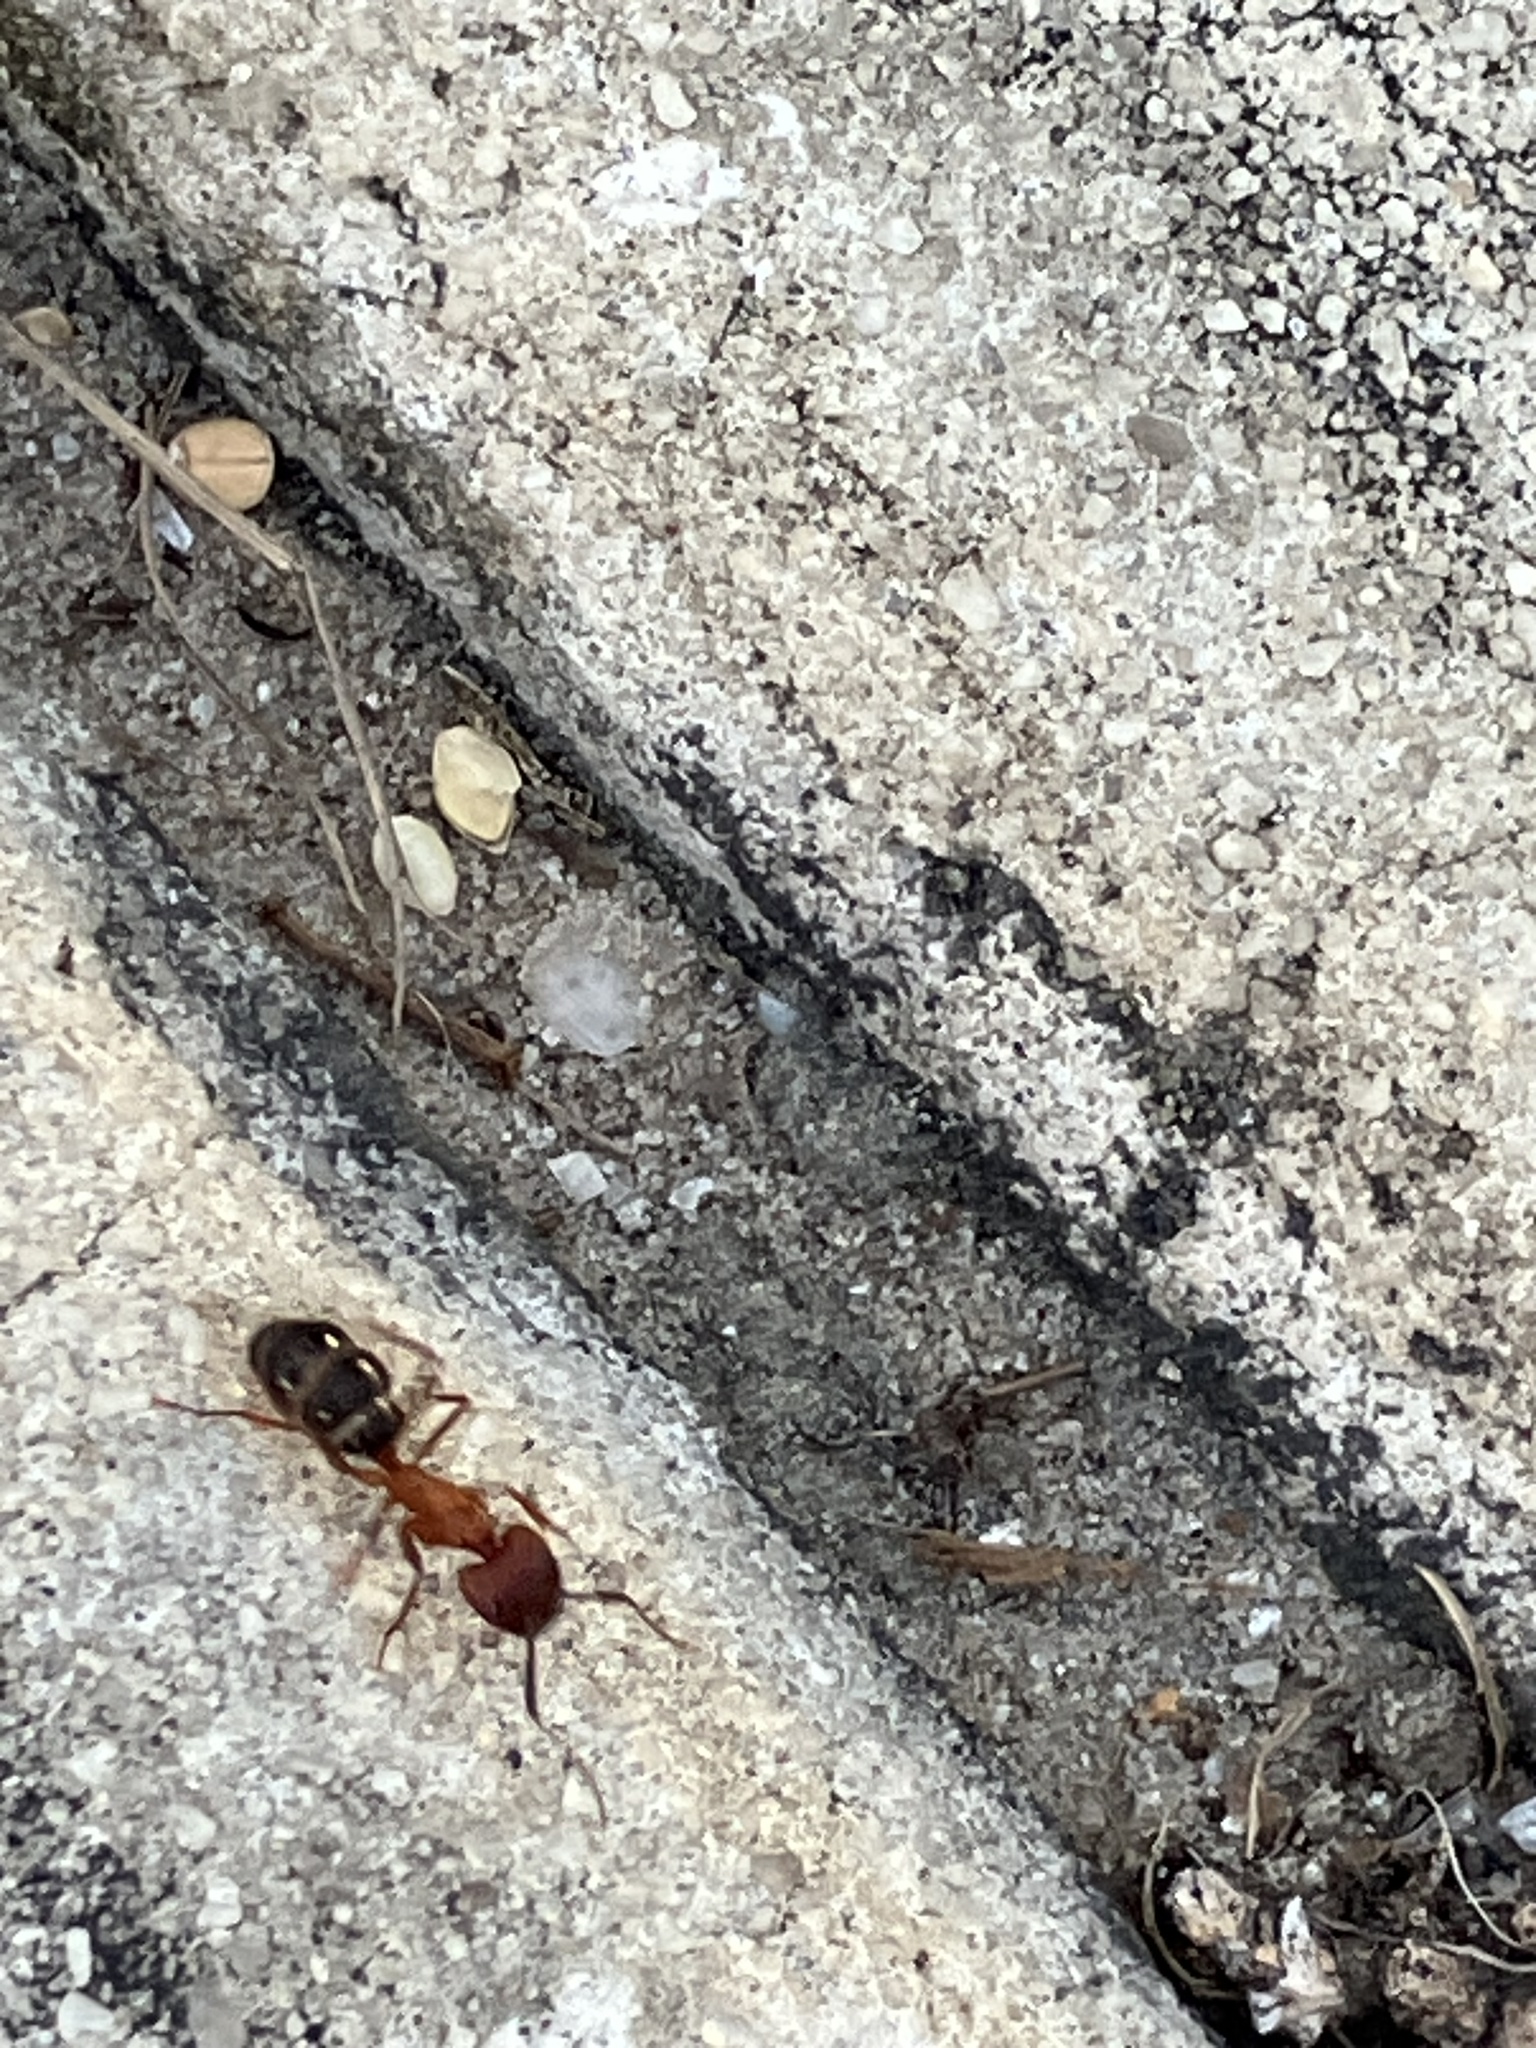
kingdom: Animalia
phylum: Arthropoda
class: Insecta
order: Hymenoptera
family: Formicidae
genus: Camponotus
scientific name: Camponotus floridanus
